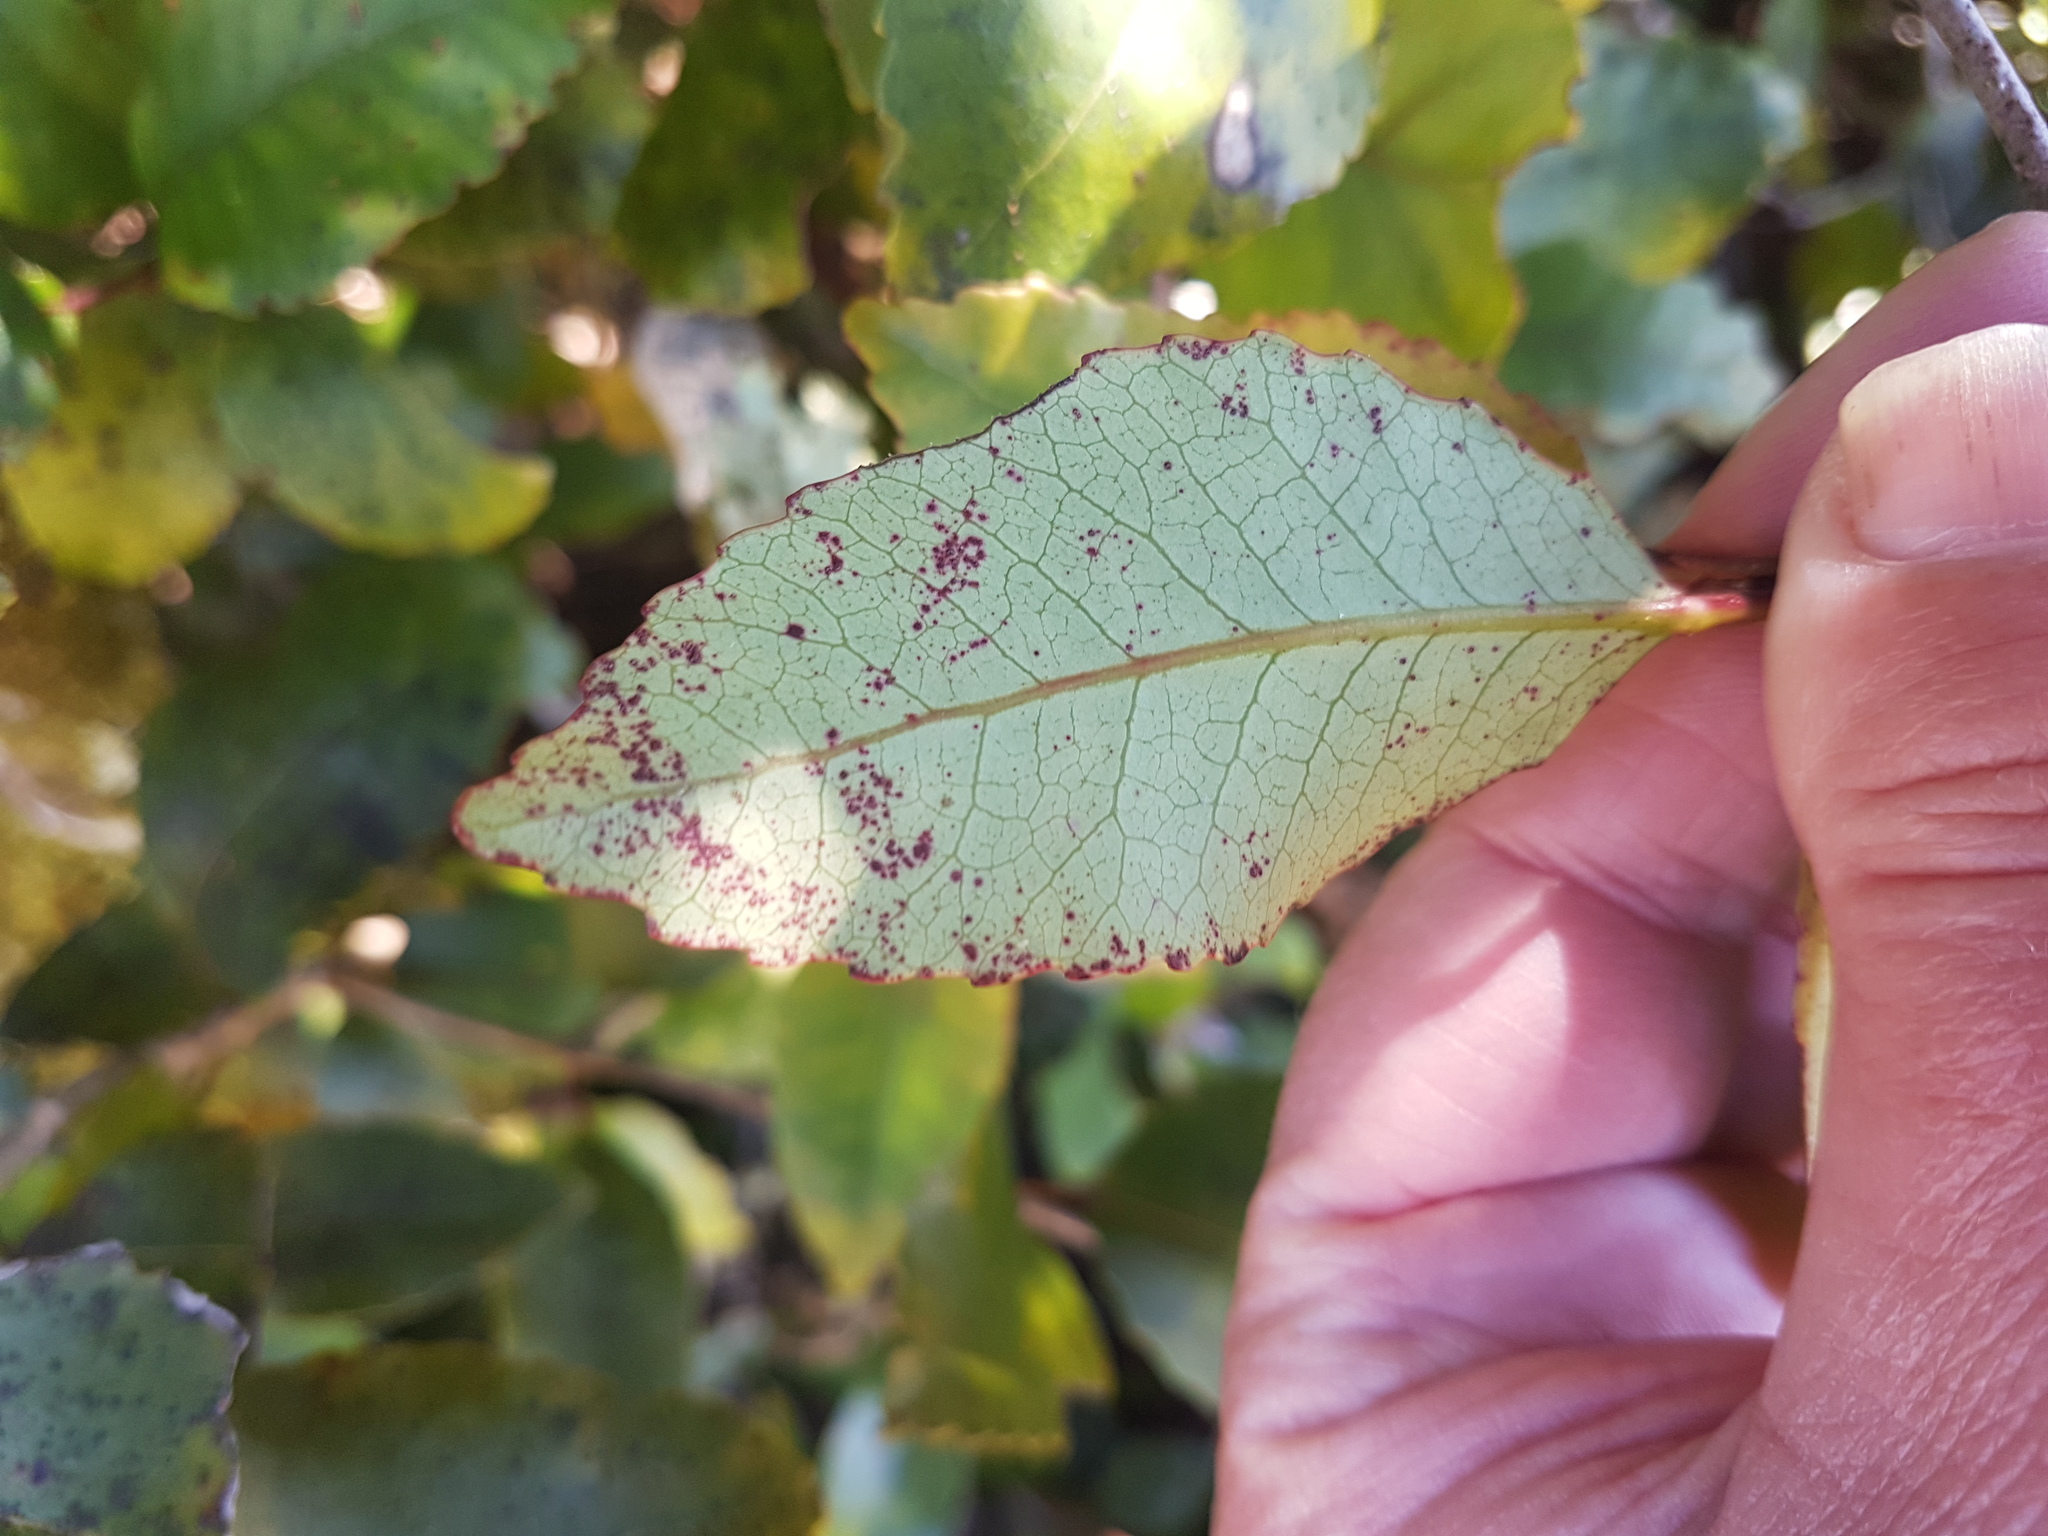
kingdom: Plantae
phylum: Tracheophyta
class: Magnoliopsida
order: Oxalidales
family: Cunoniaceae
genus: Pterophylla
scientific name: Pterophylla racemosa
